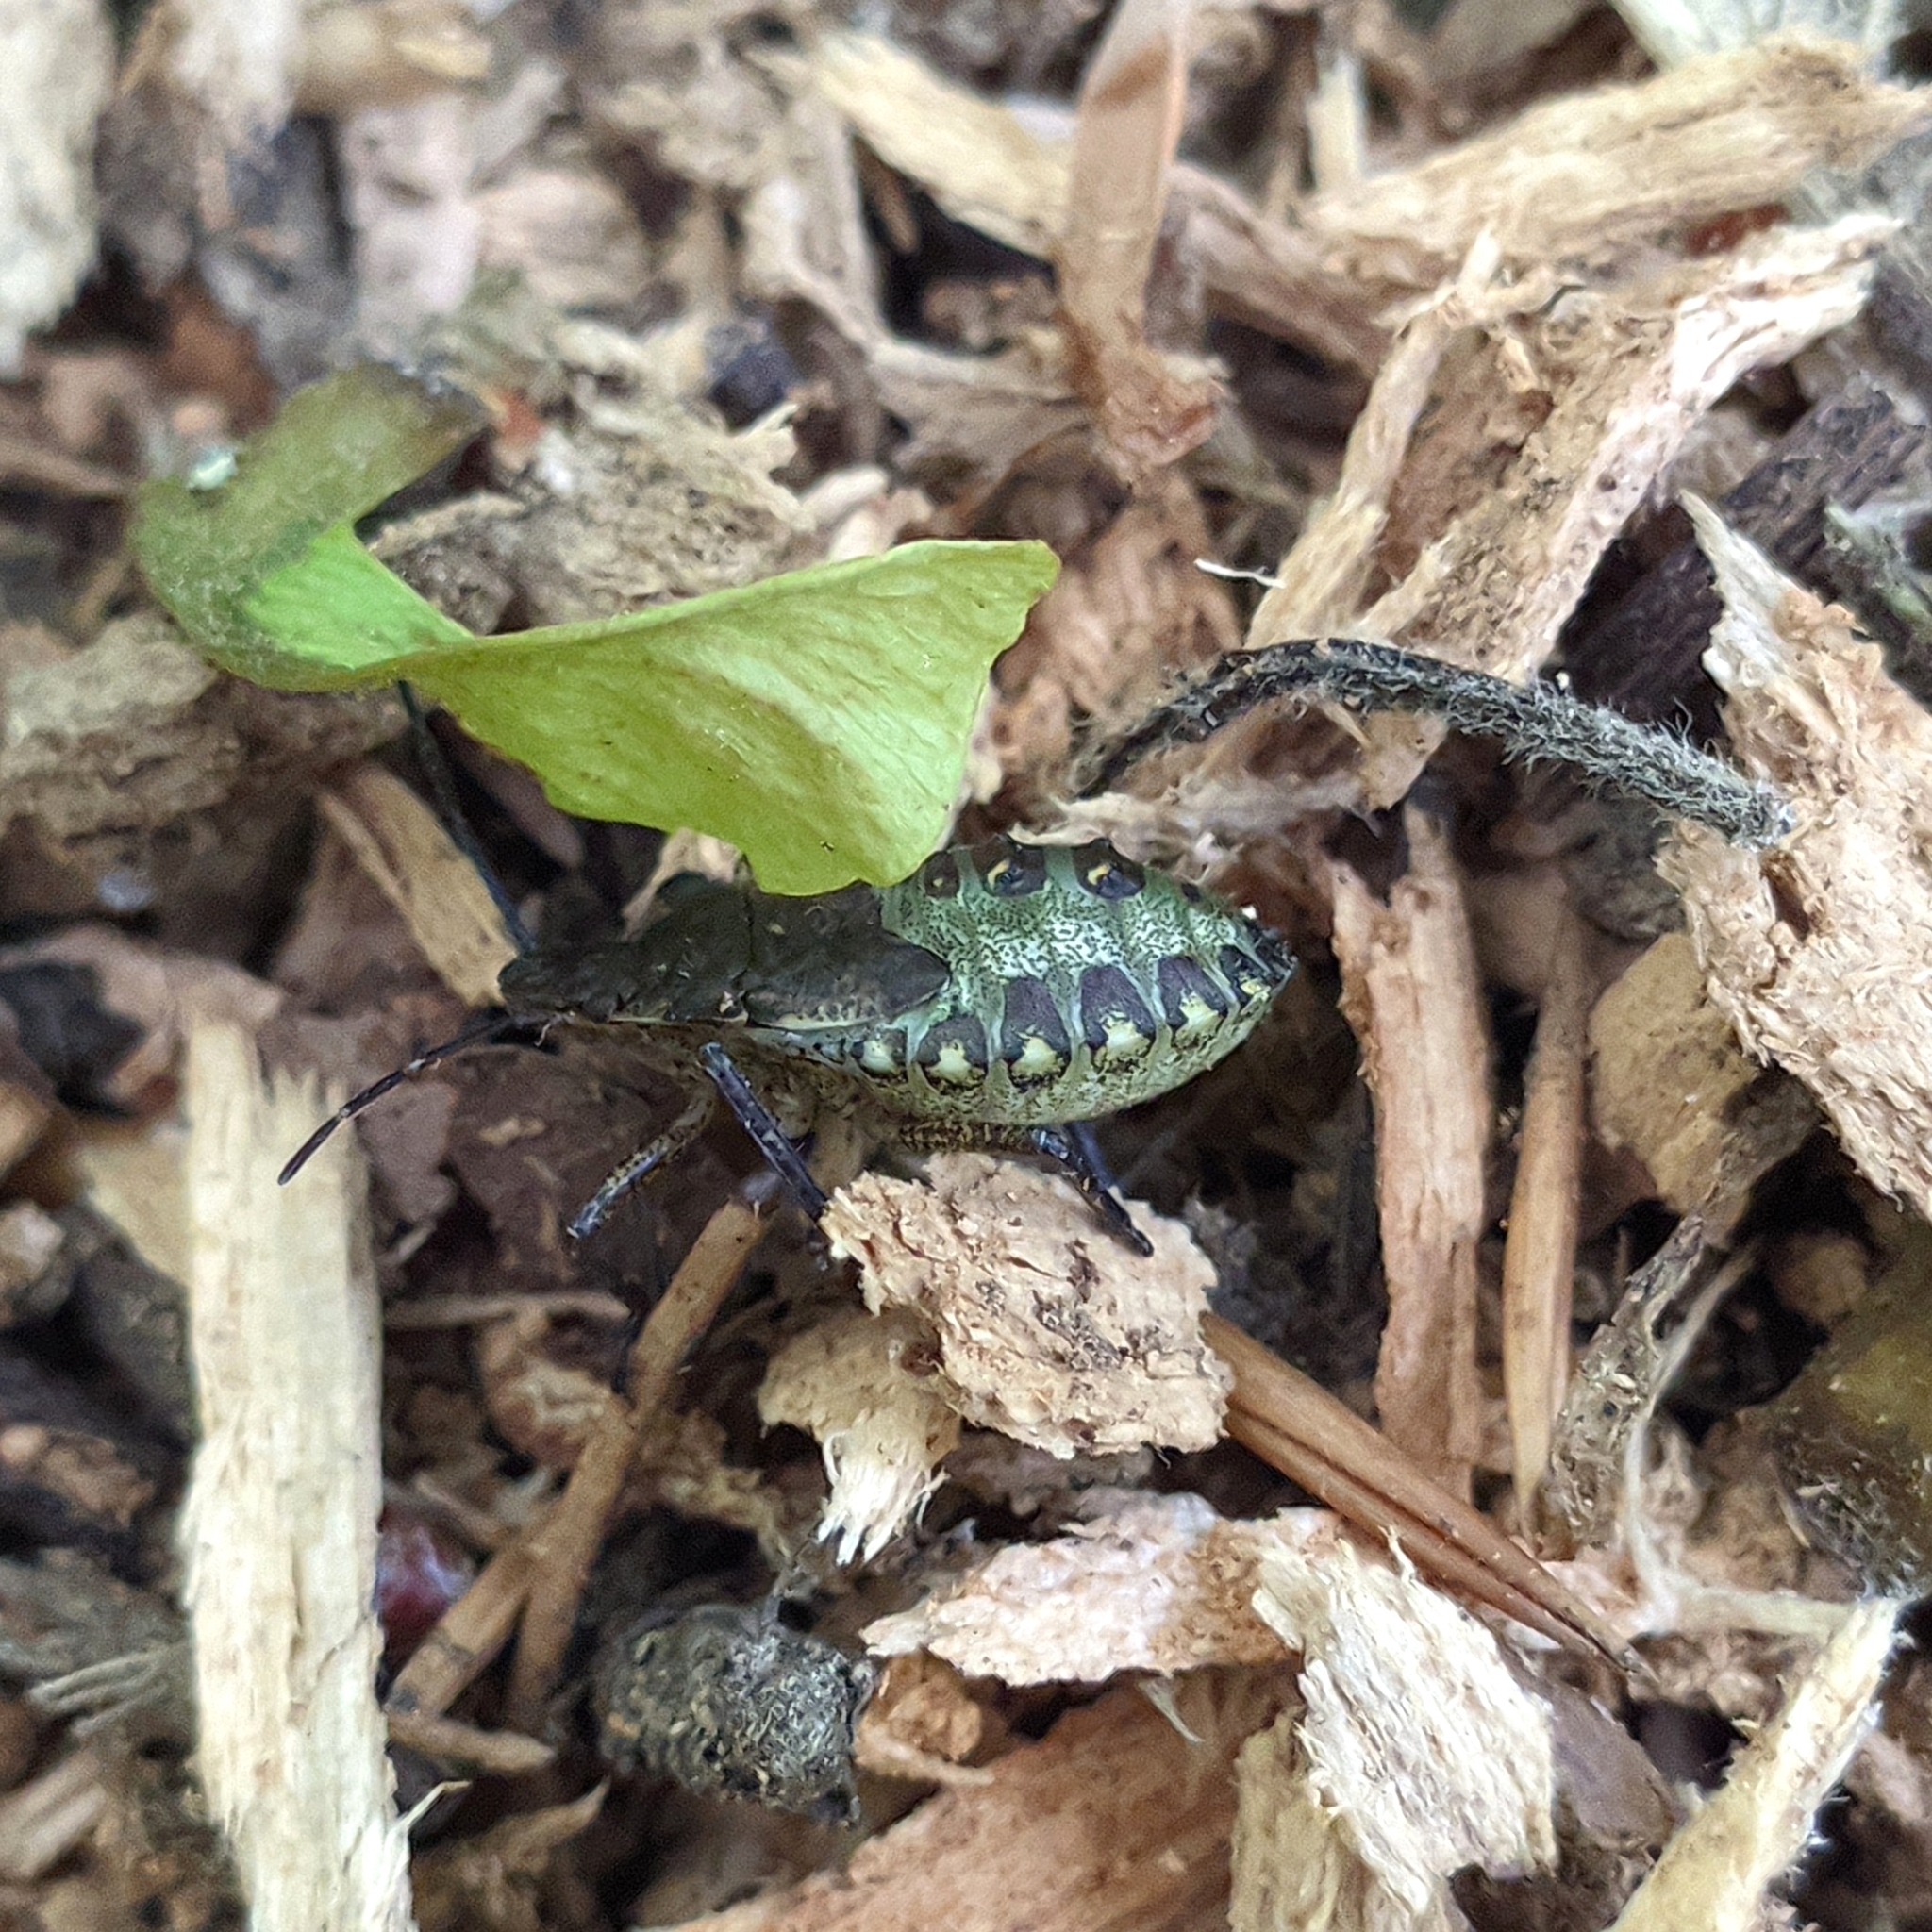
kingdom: Animalia
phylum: Arthropoda
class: Insecta
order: Hemiptera
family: Pentatomidae
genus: Pentatoma
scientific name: Pentatoma rufipes
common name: Forest bug
